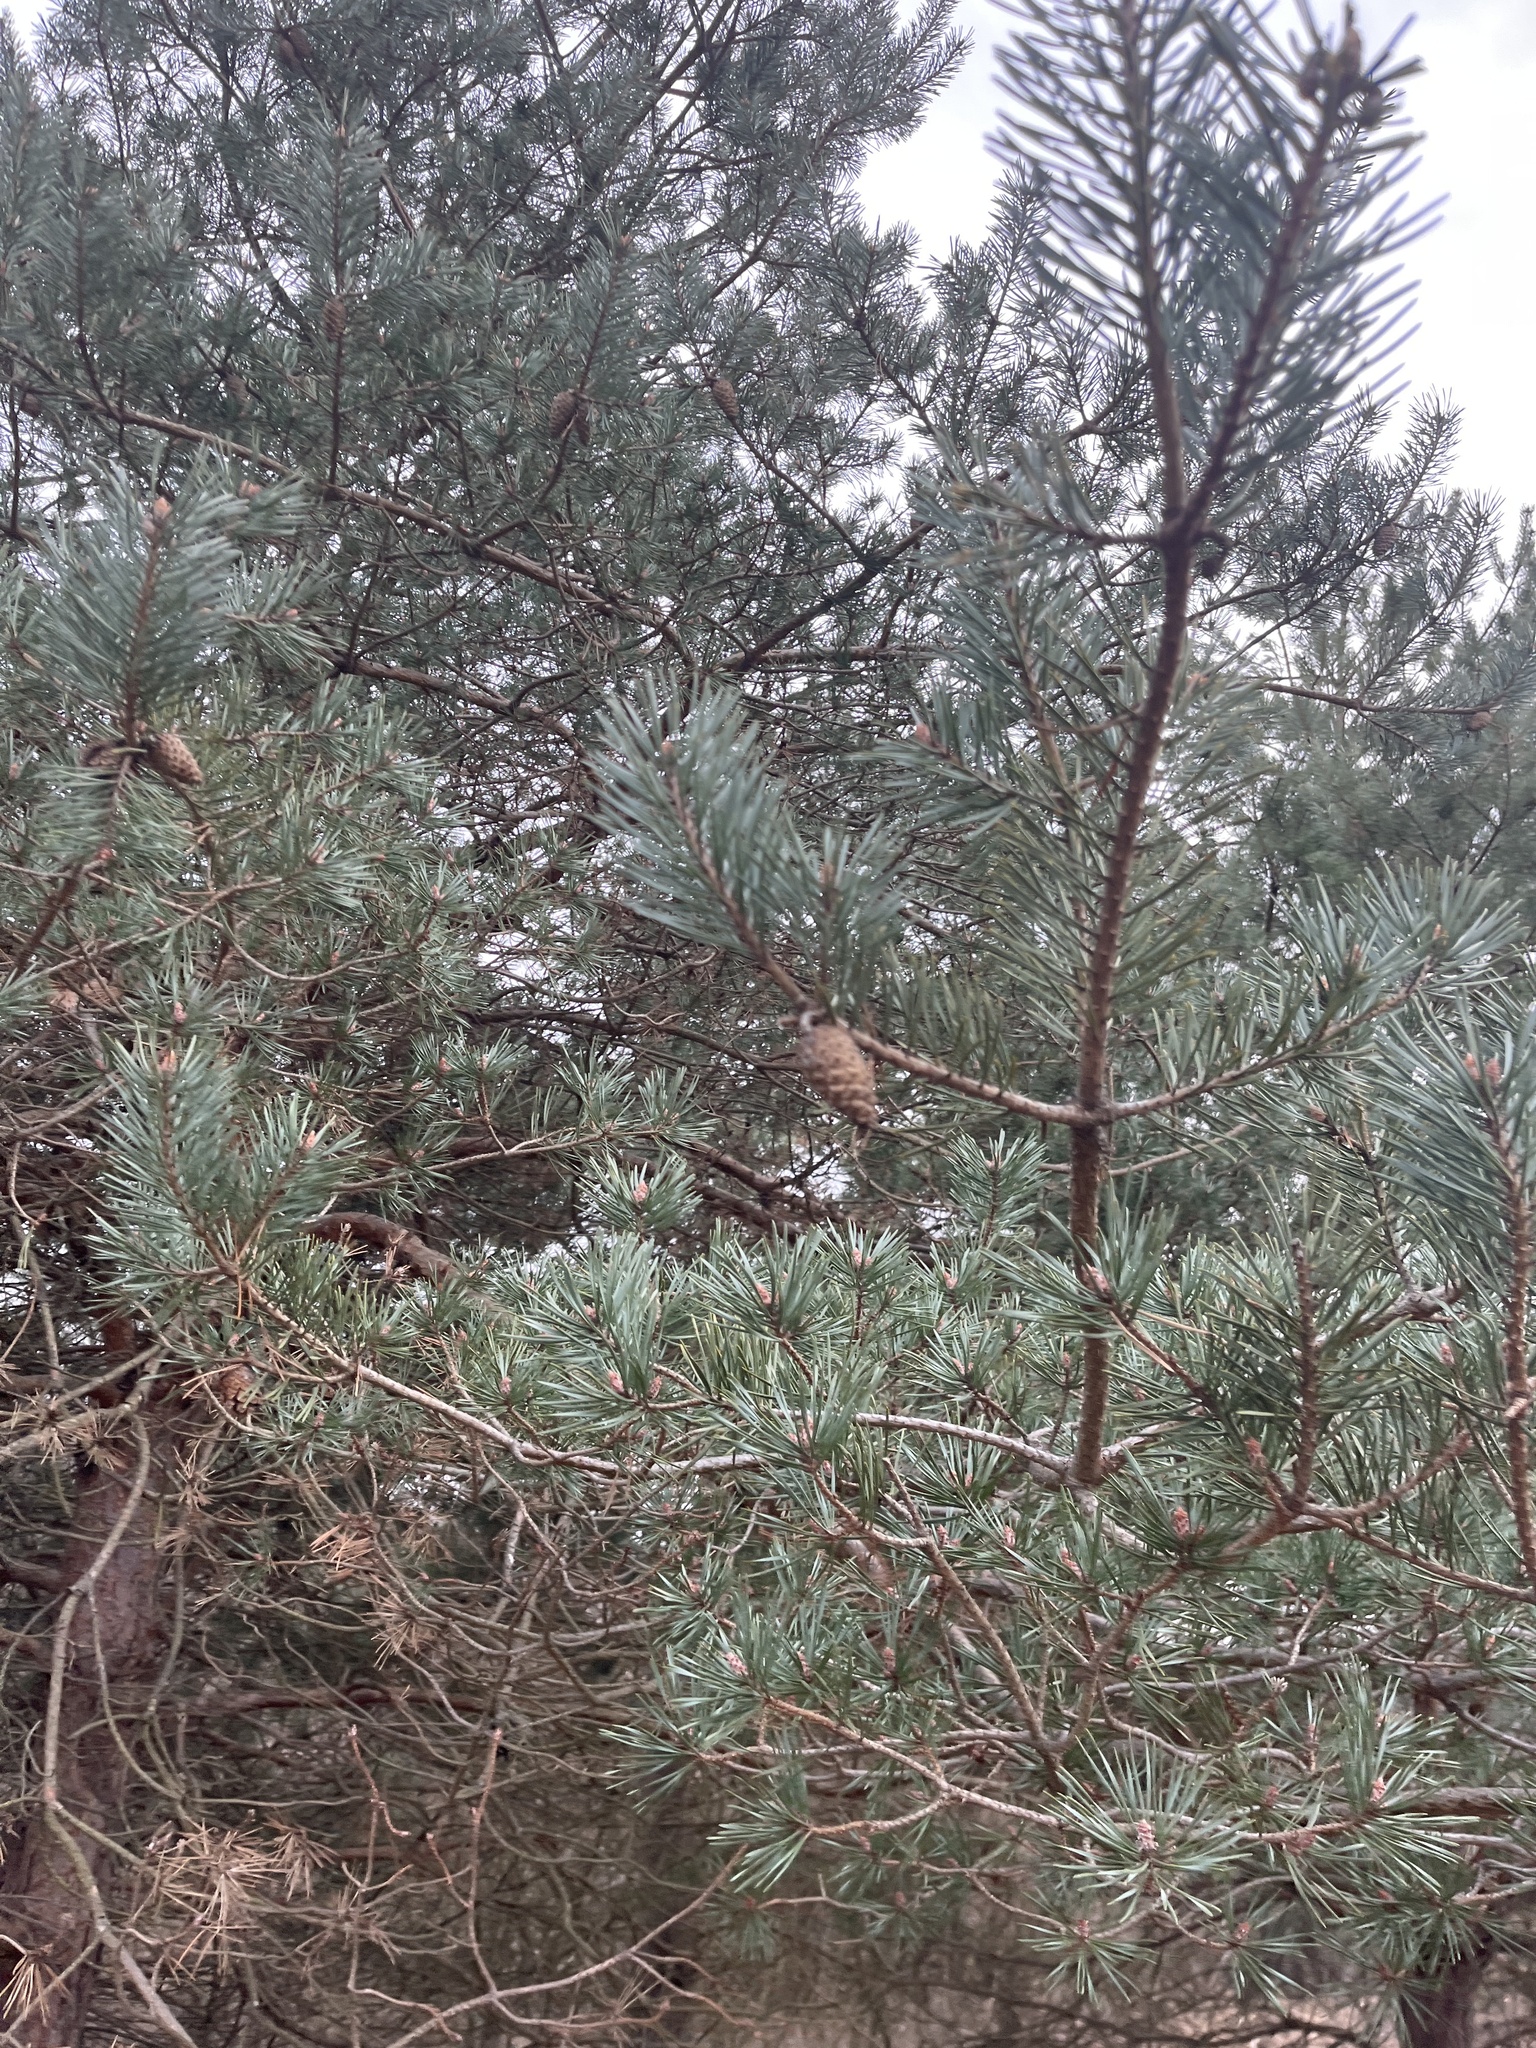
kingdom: Plantae
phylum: Tracheophyta
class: Pinopsida
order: Pinales
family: Pinaceae
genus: Pinus
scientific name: Pinus sylvestris
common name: Scots pine
